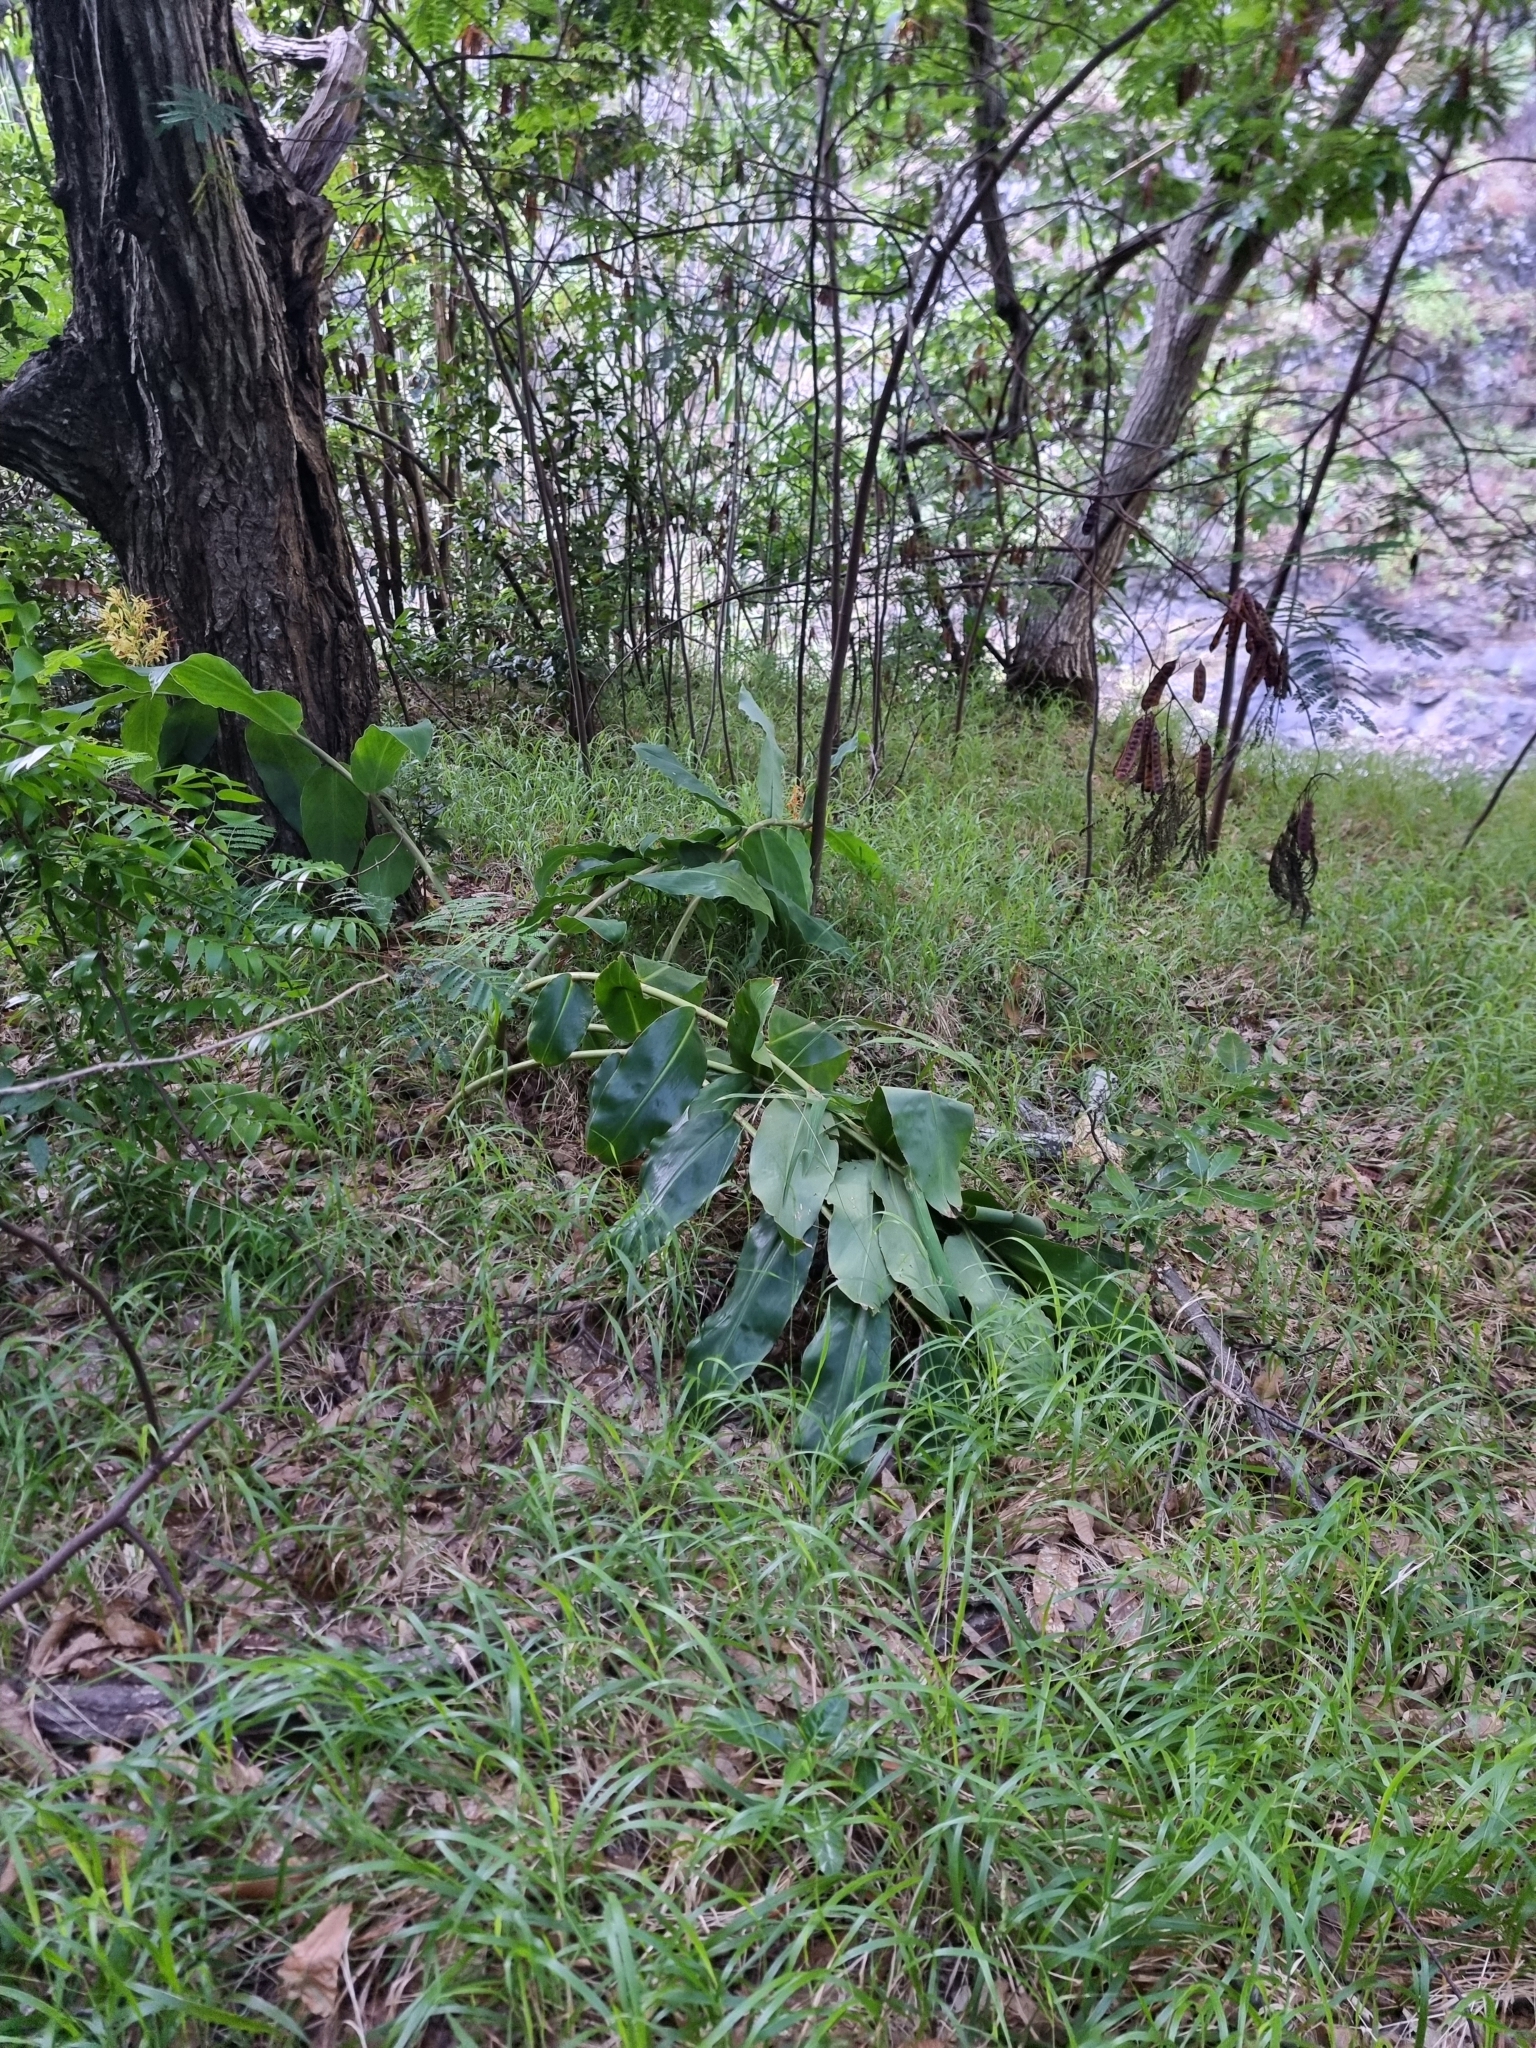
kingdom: Plantae
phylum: Tracheophyta
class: Liliopsida
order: Zingiberales
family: Zingiberaceae
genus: Hedychium
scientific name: Hedychium gardnerianum
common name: Himalayan ginger
